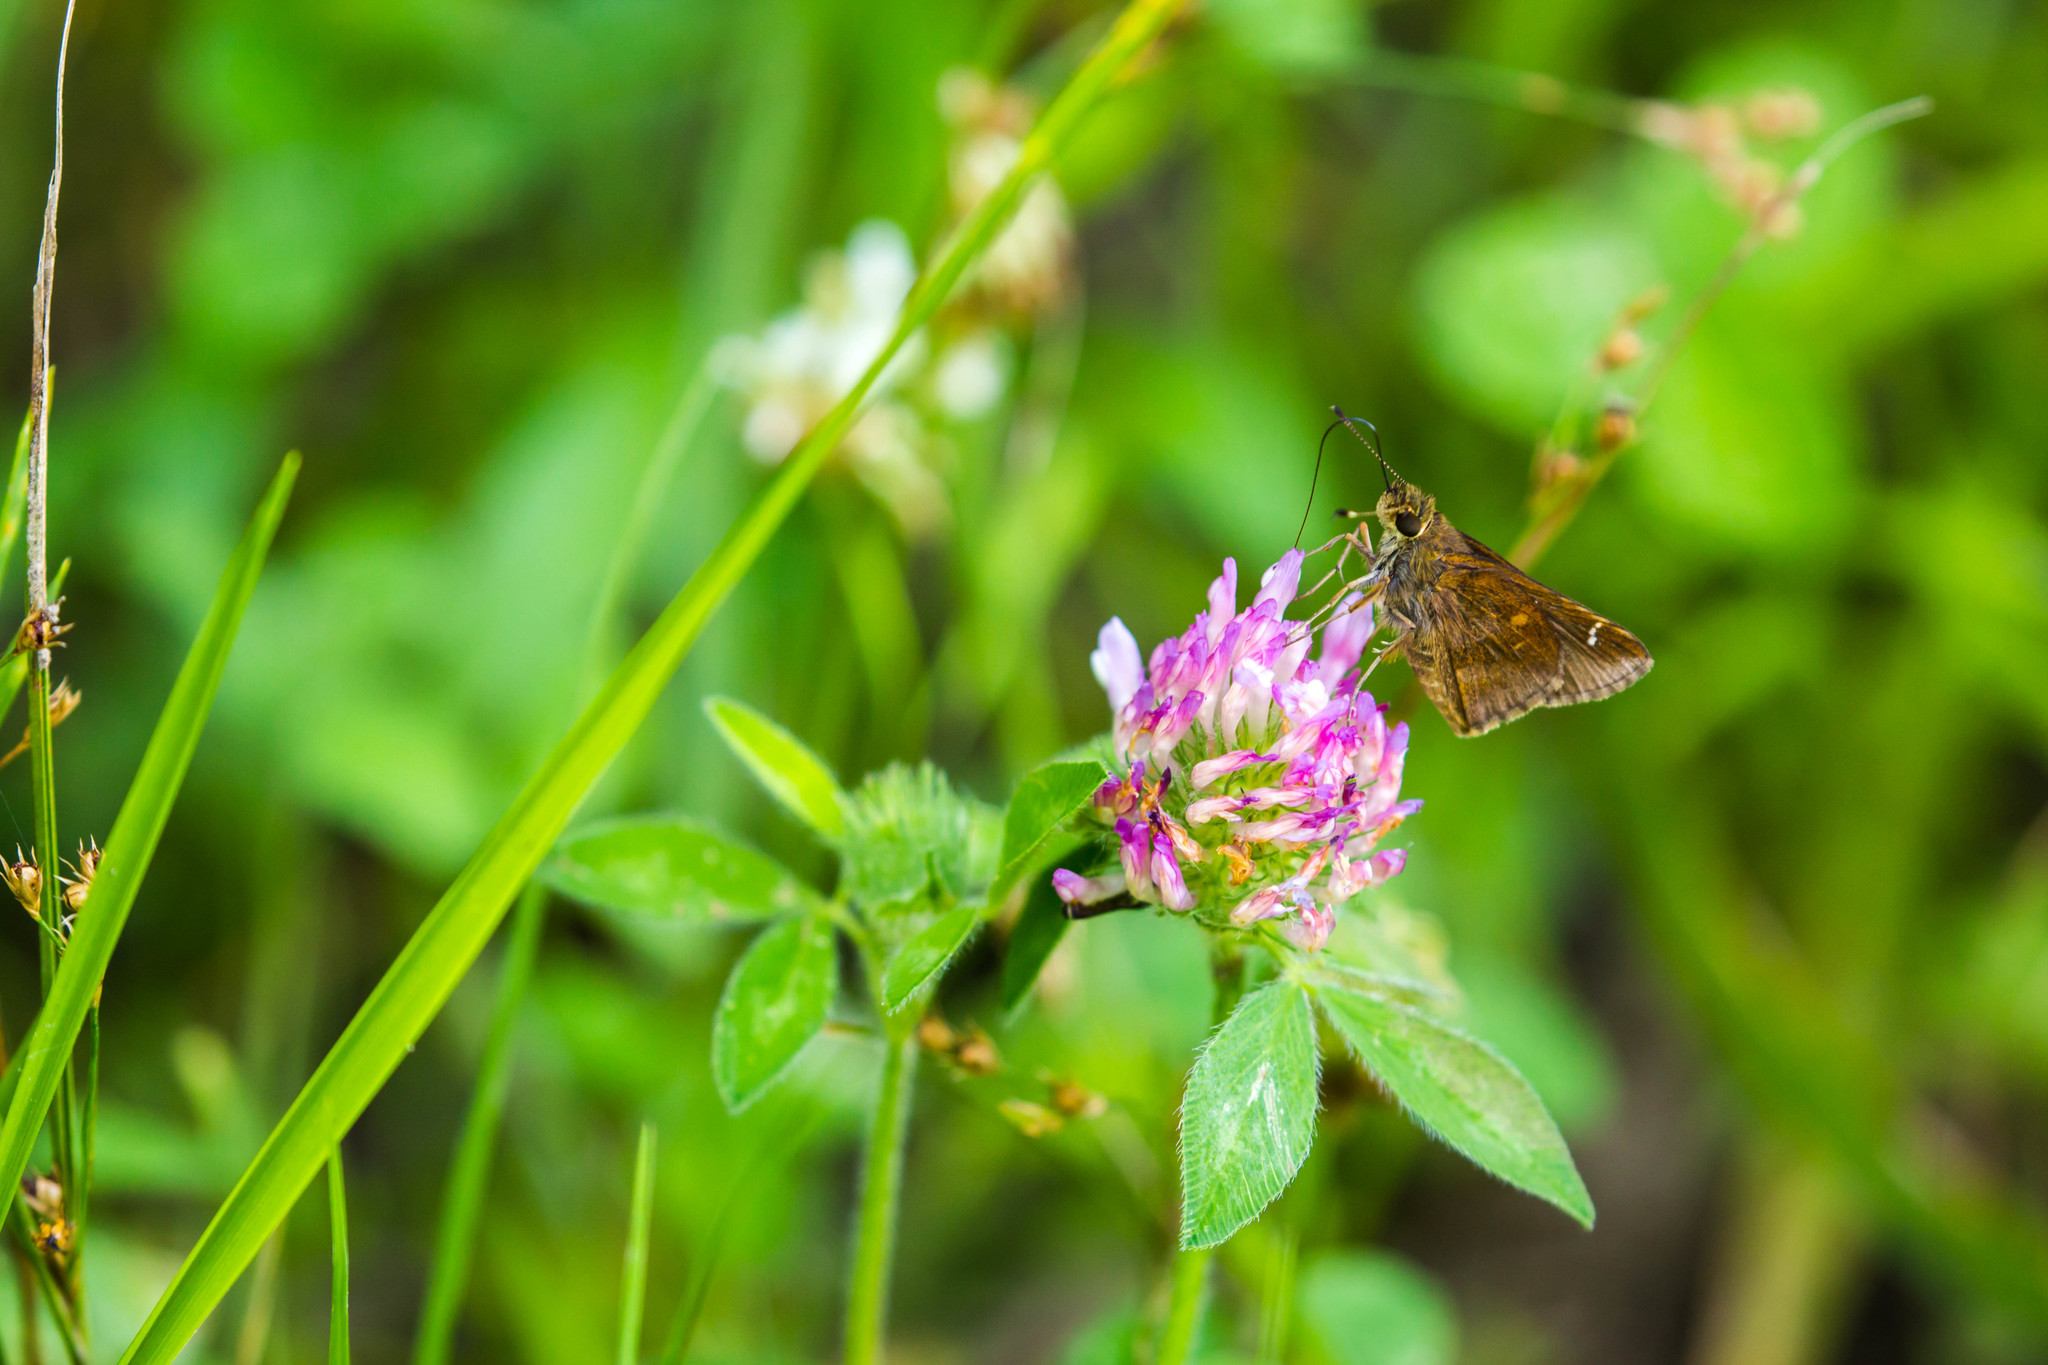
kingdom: Animalia
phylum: Arthropoda
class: Insecta
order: Lepidoptera
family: Hesperiidae
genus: Lerema
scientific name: Lerema accius
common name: Clouded skipper
